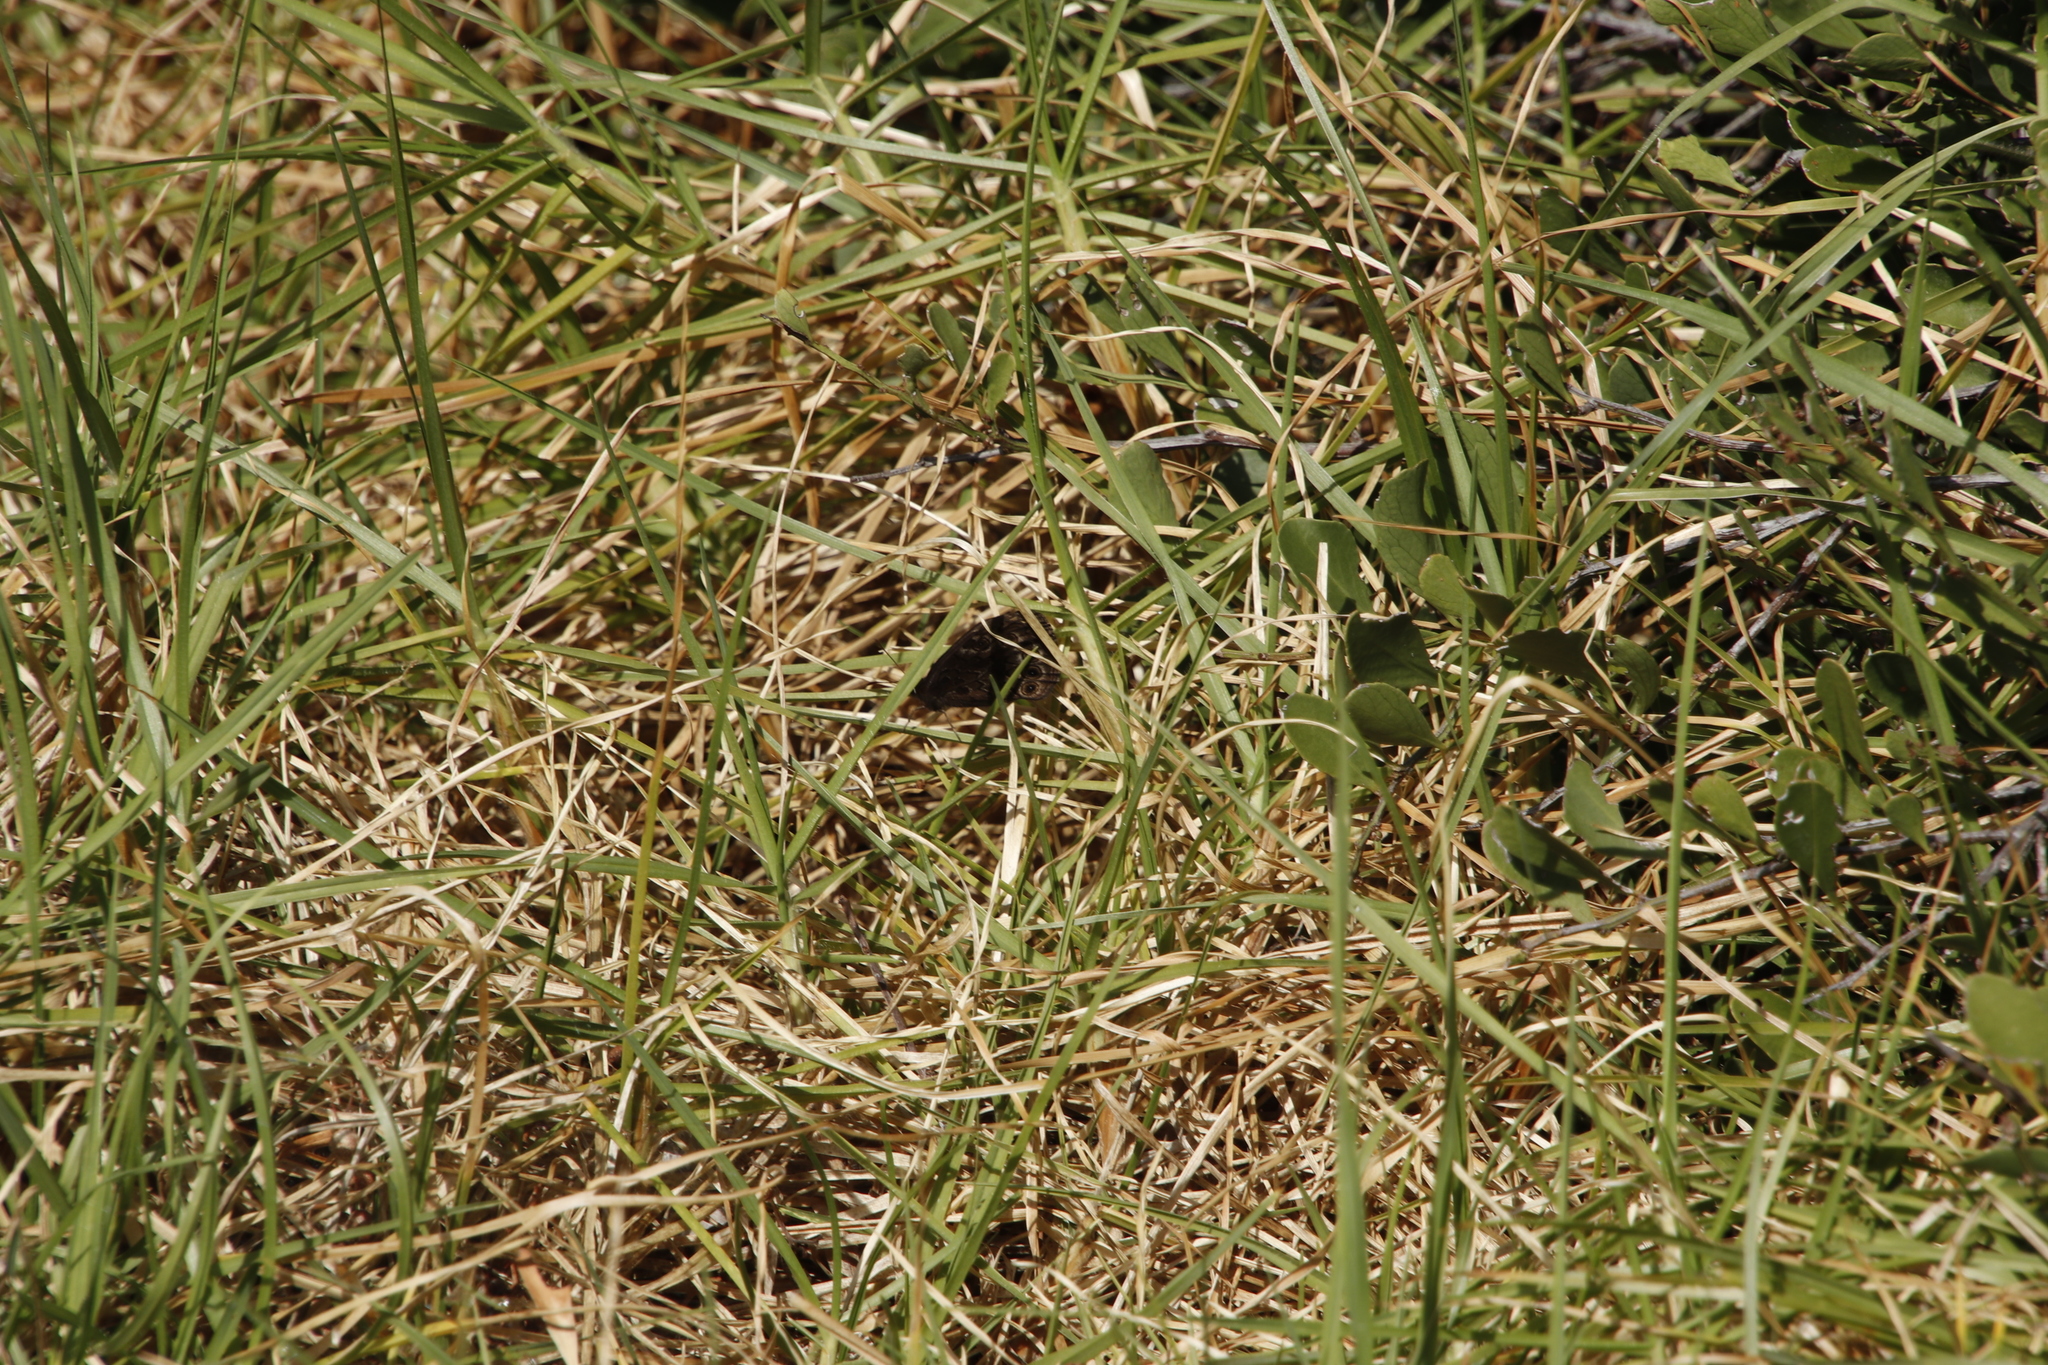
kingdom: Animalia
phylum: Arthropoda
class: Insecta
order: Lepidoptera
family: Nymphalidae
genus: Dira
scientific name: Dira clytus
